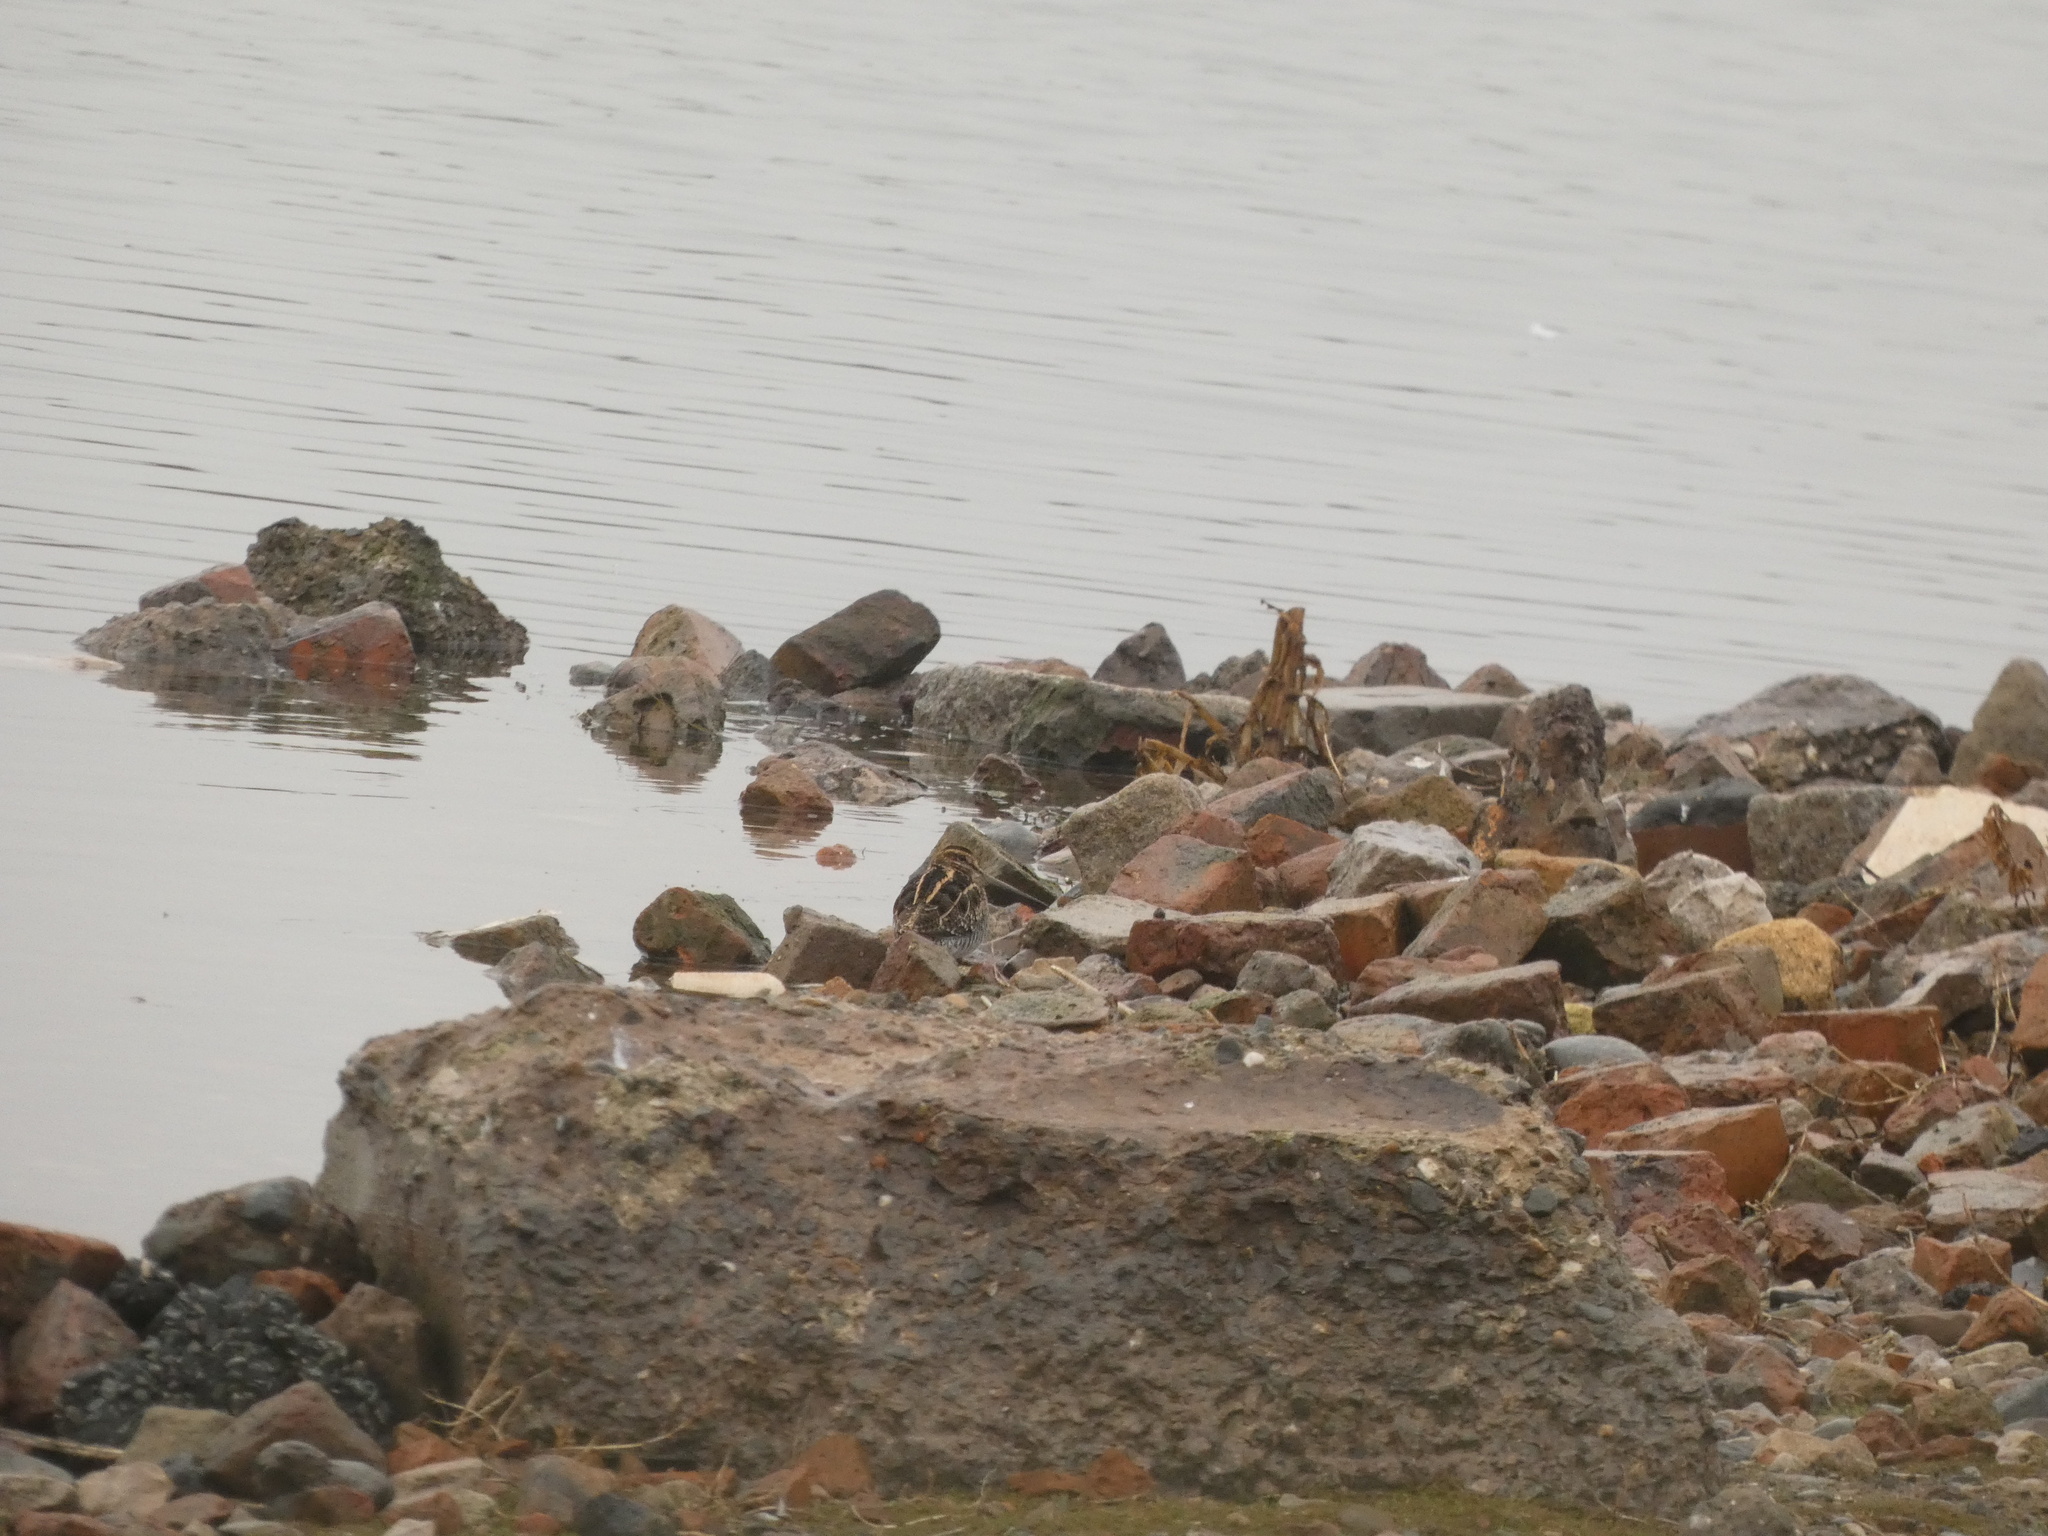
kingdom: Animalia
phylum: Chordata
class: Aves
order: Charadriiformes
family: Scolopacidae
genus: Gallinago
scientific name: Gallinago gallinago
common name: Common snipe
